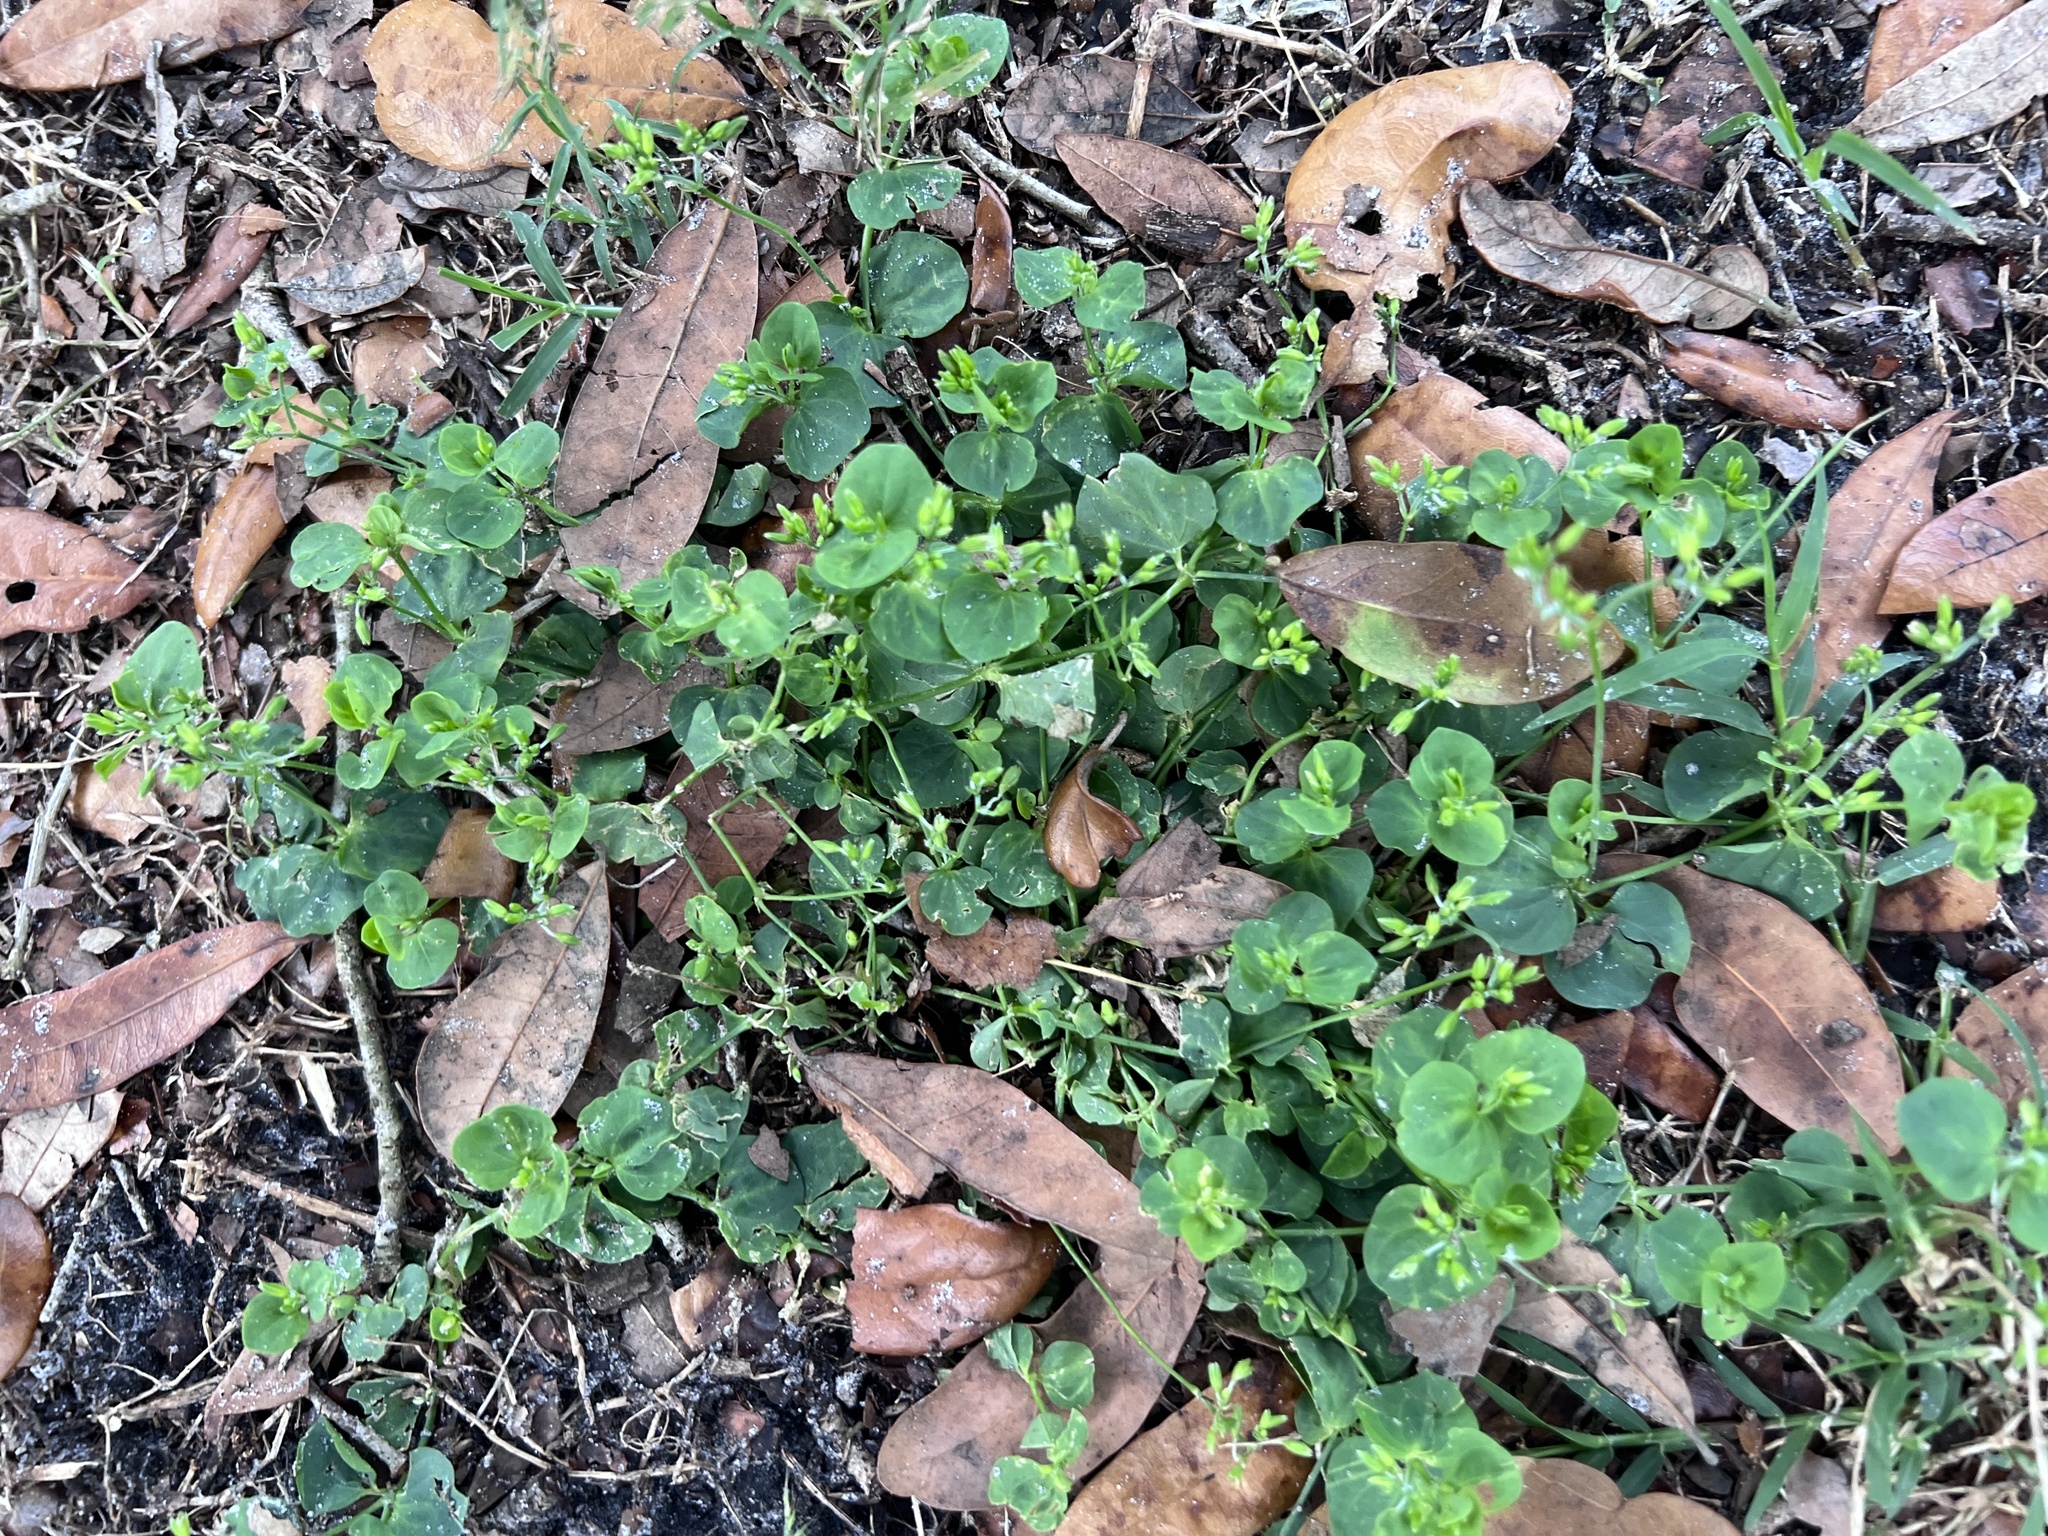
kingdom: Plantae
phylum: Tracheophyta
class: Magnoliopsida
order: Caryophyllales
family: Caryophyllaceae
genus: Drymaria
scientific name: Drymaria cordata
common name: Whitesnow
